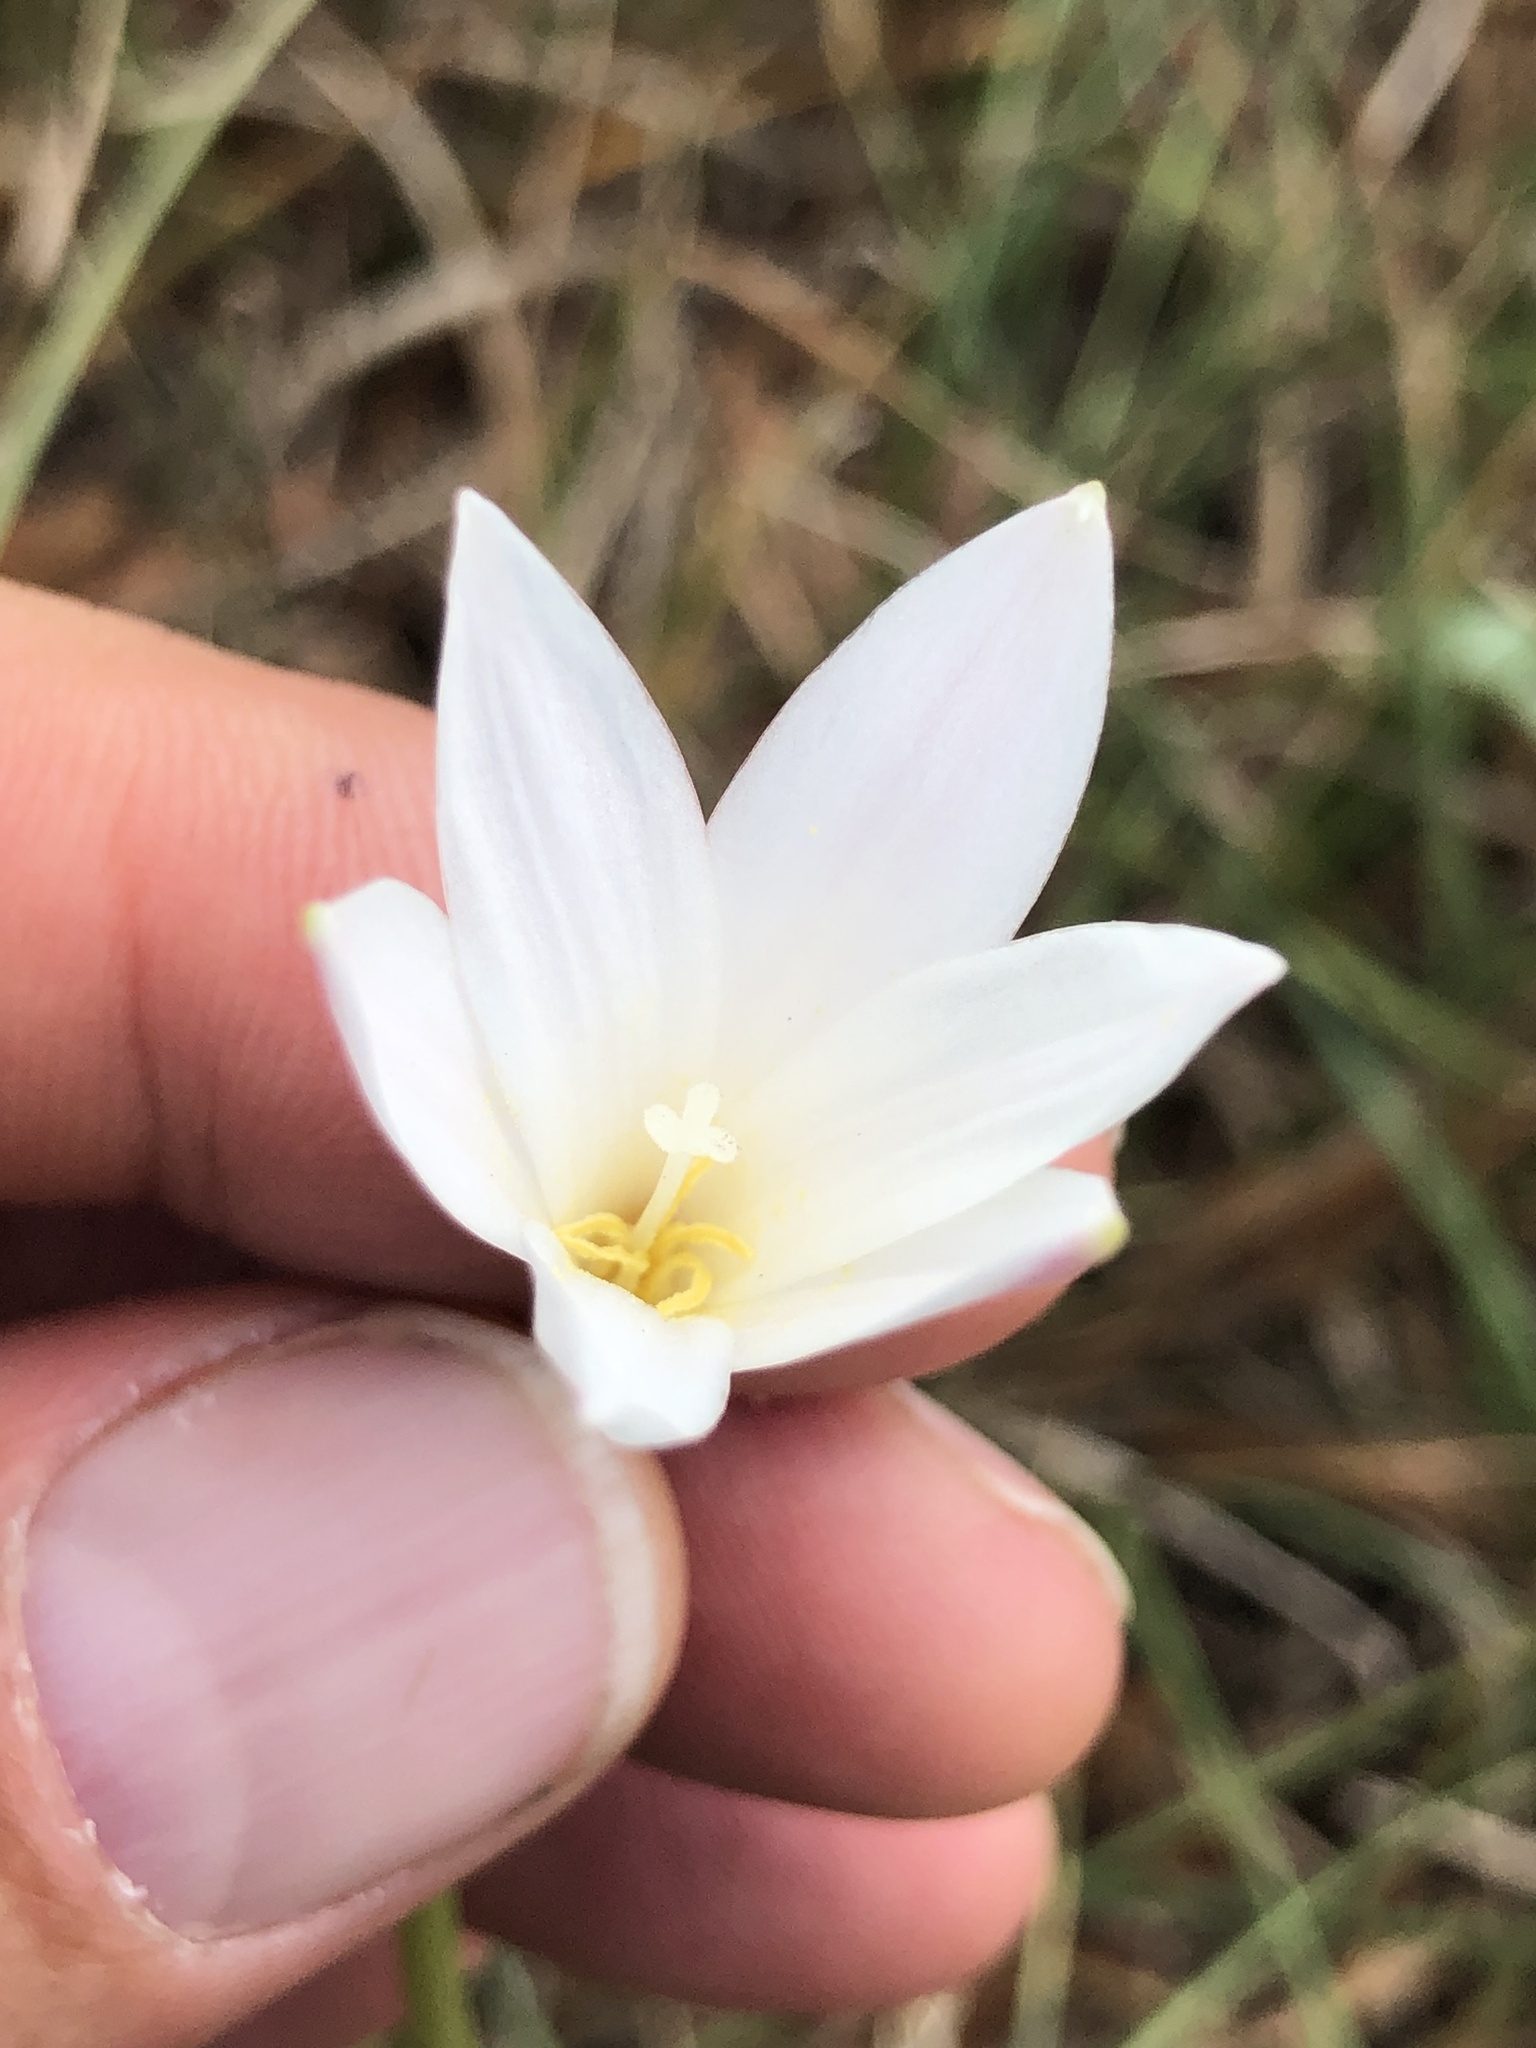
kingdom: Plantae
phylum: Tracheophyta
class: Liliopsida
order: Asparagales
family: Amaryllidaceae
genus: Zephyranthes
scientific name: Zephyranthes traubii
